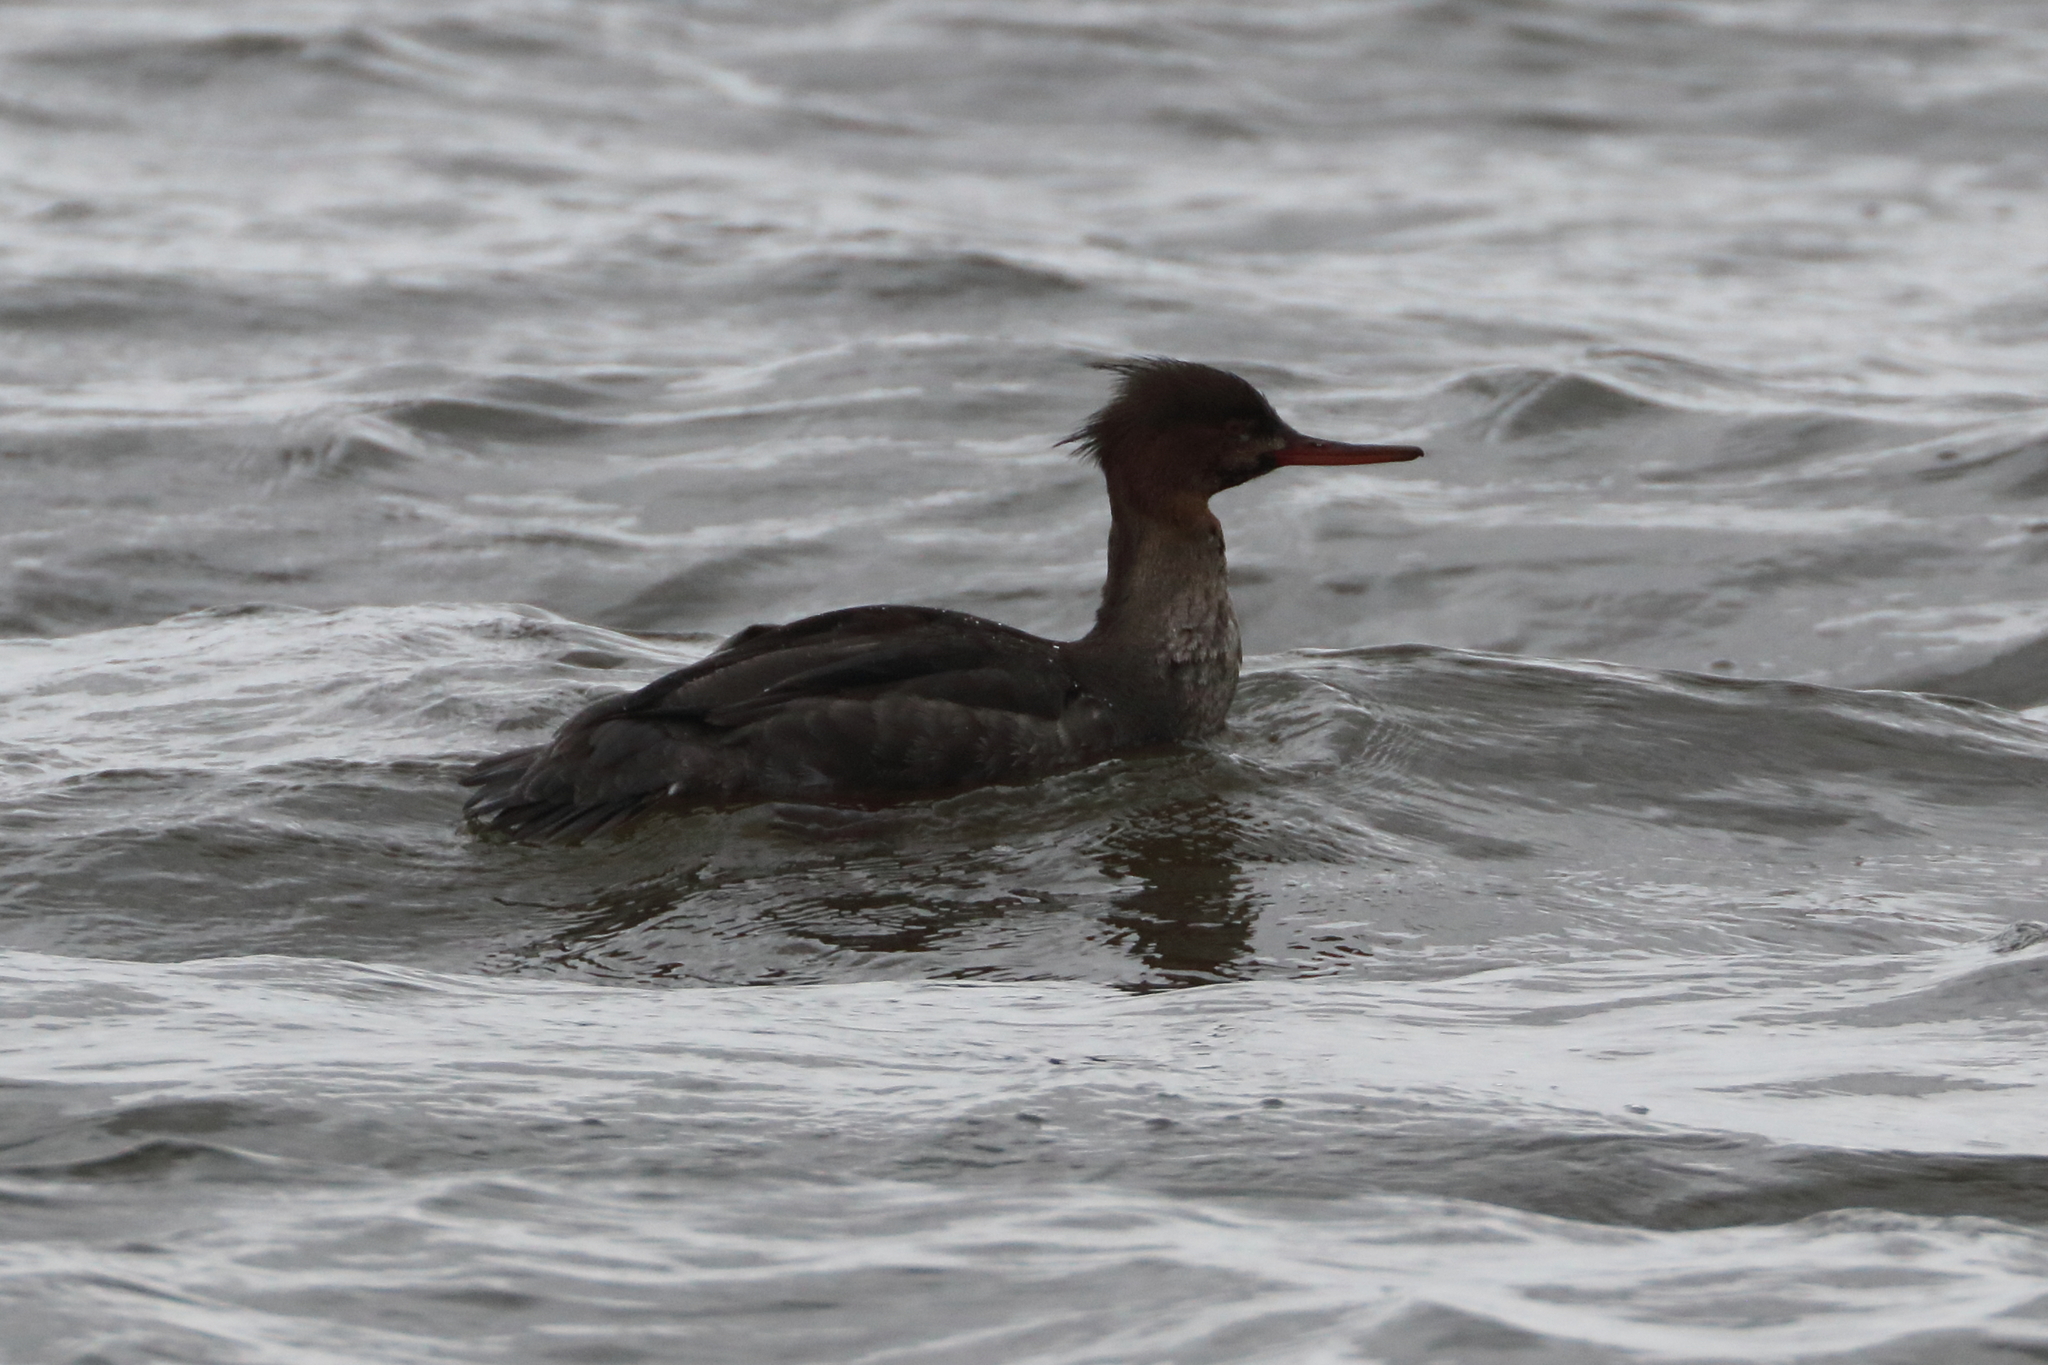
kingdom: Animalia
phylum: Chordata
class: Aves
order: Anseriformes
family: Anatidae
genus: Mergus
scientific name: Mergus serrator
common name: Red-breasted merganser
